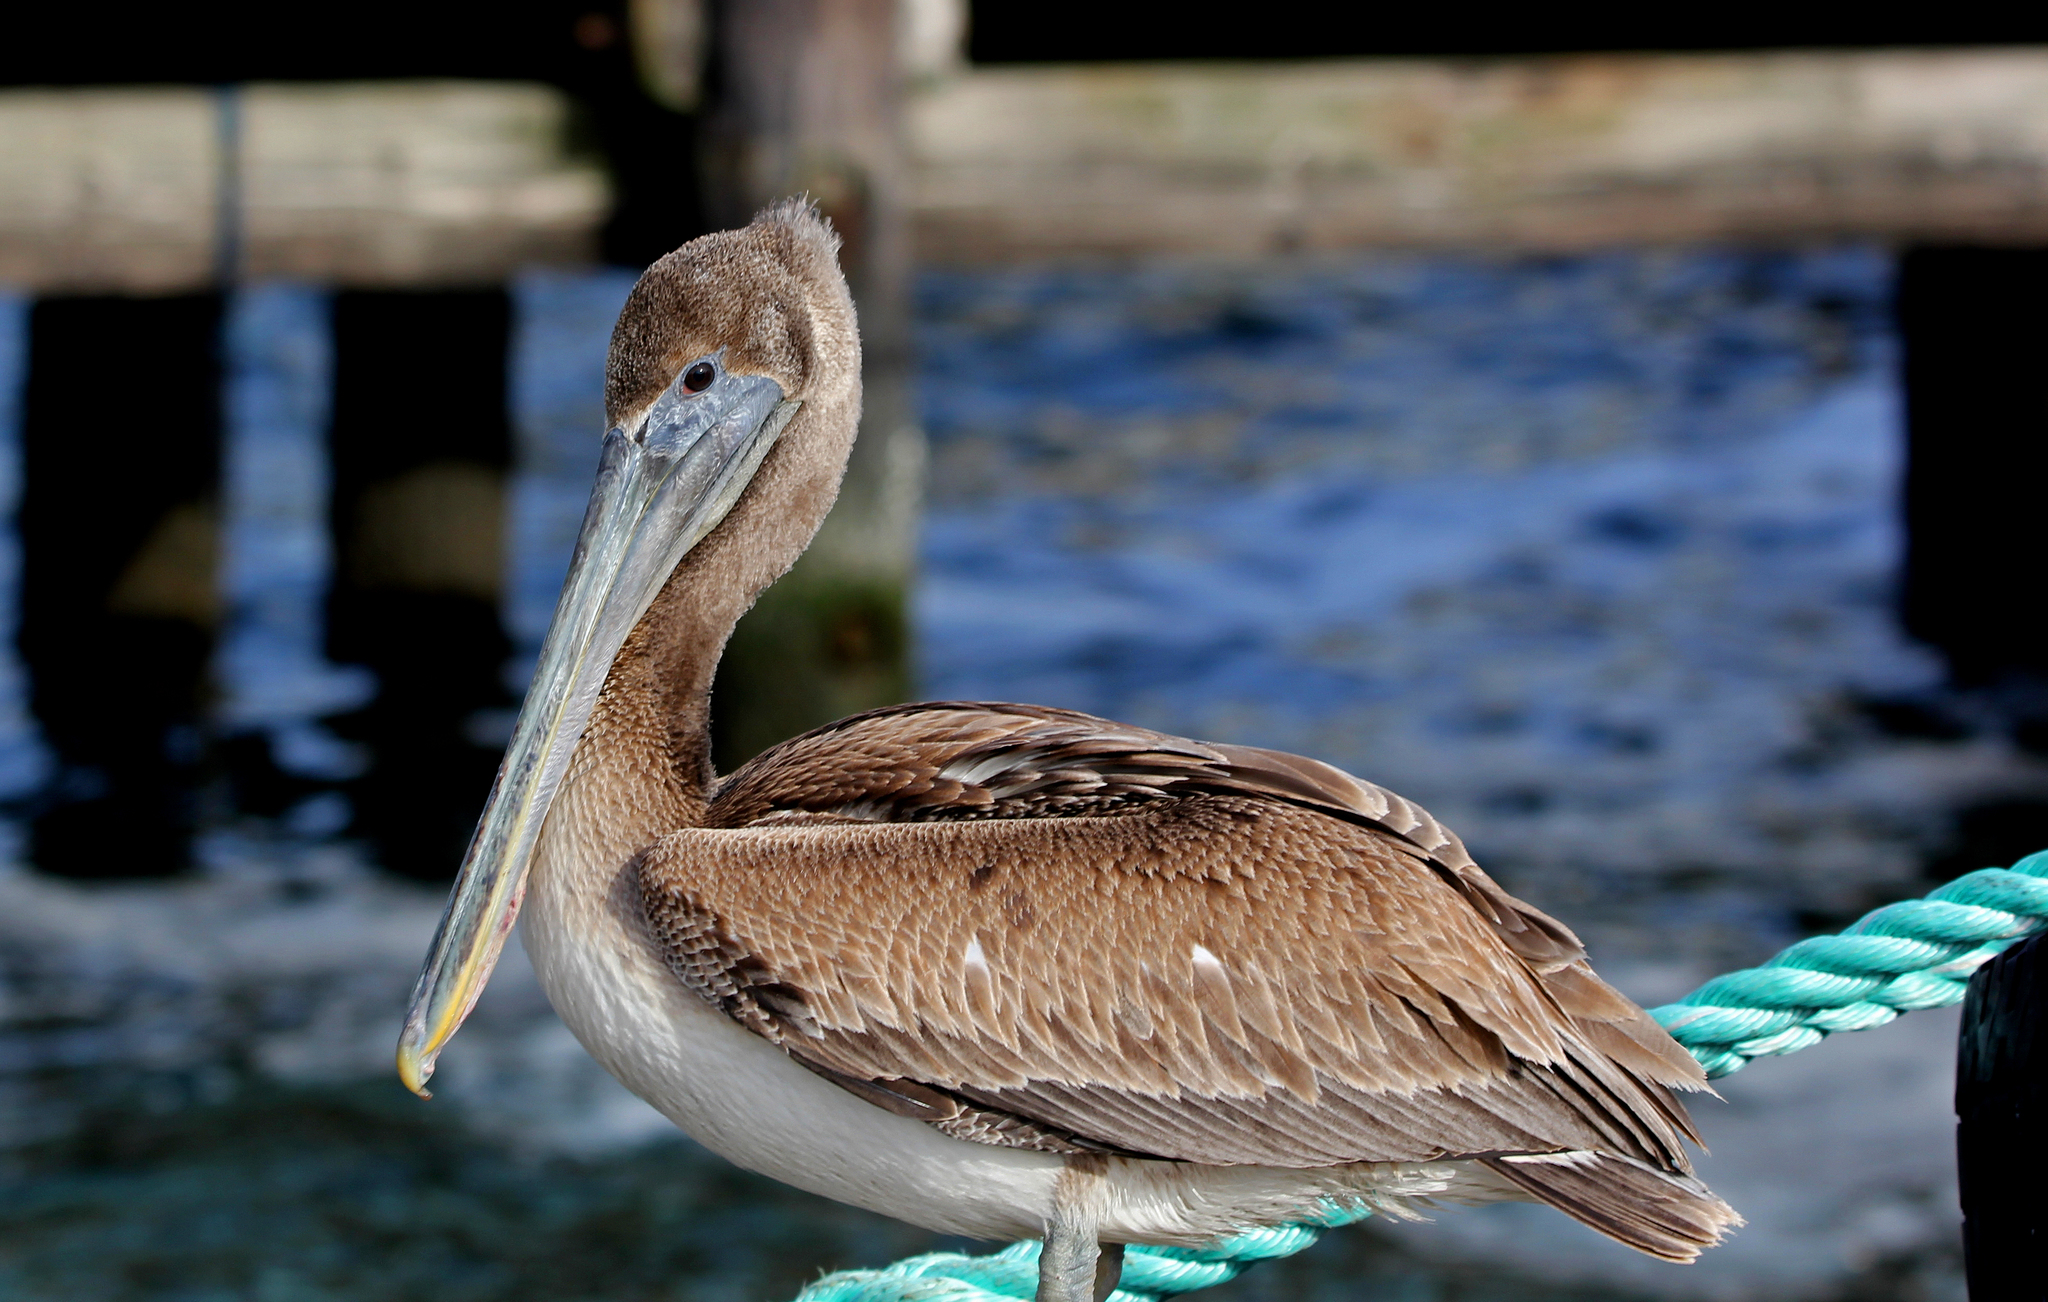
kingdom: Animalia
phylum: Chordata
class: Aves
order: Pelecaniformes
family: Pelecanidae
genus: Pelecanus
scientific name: Pelecanus occidentalis
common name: Brown pelican
